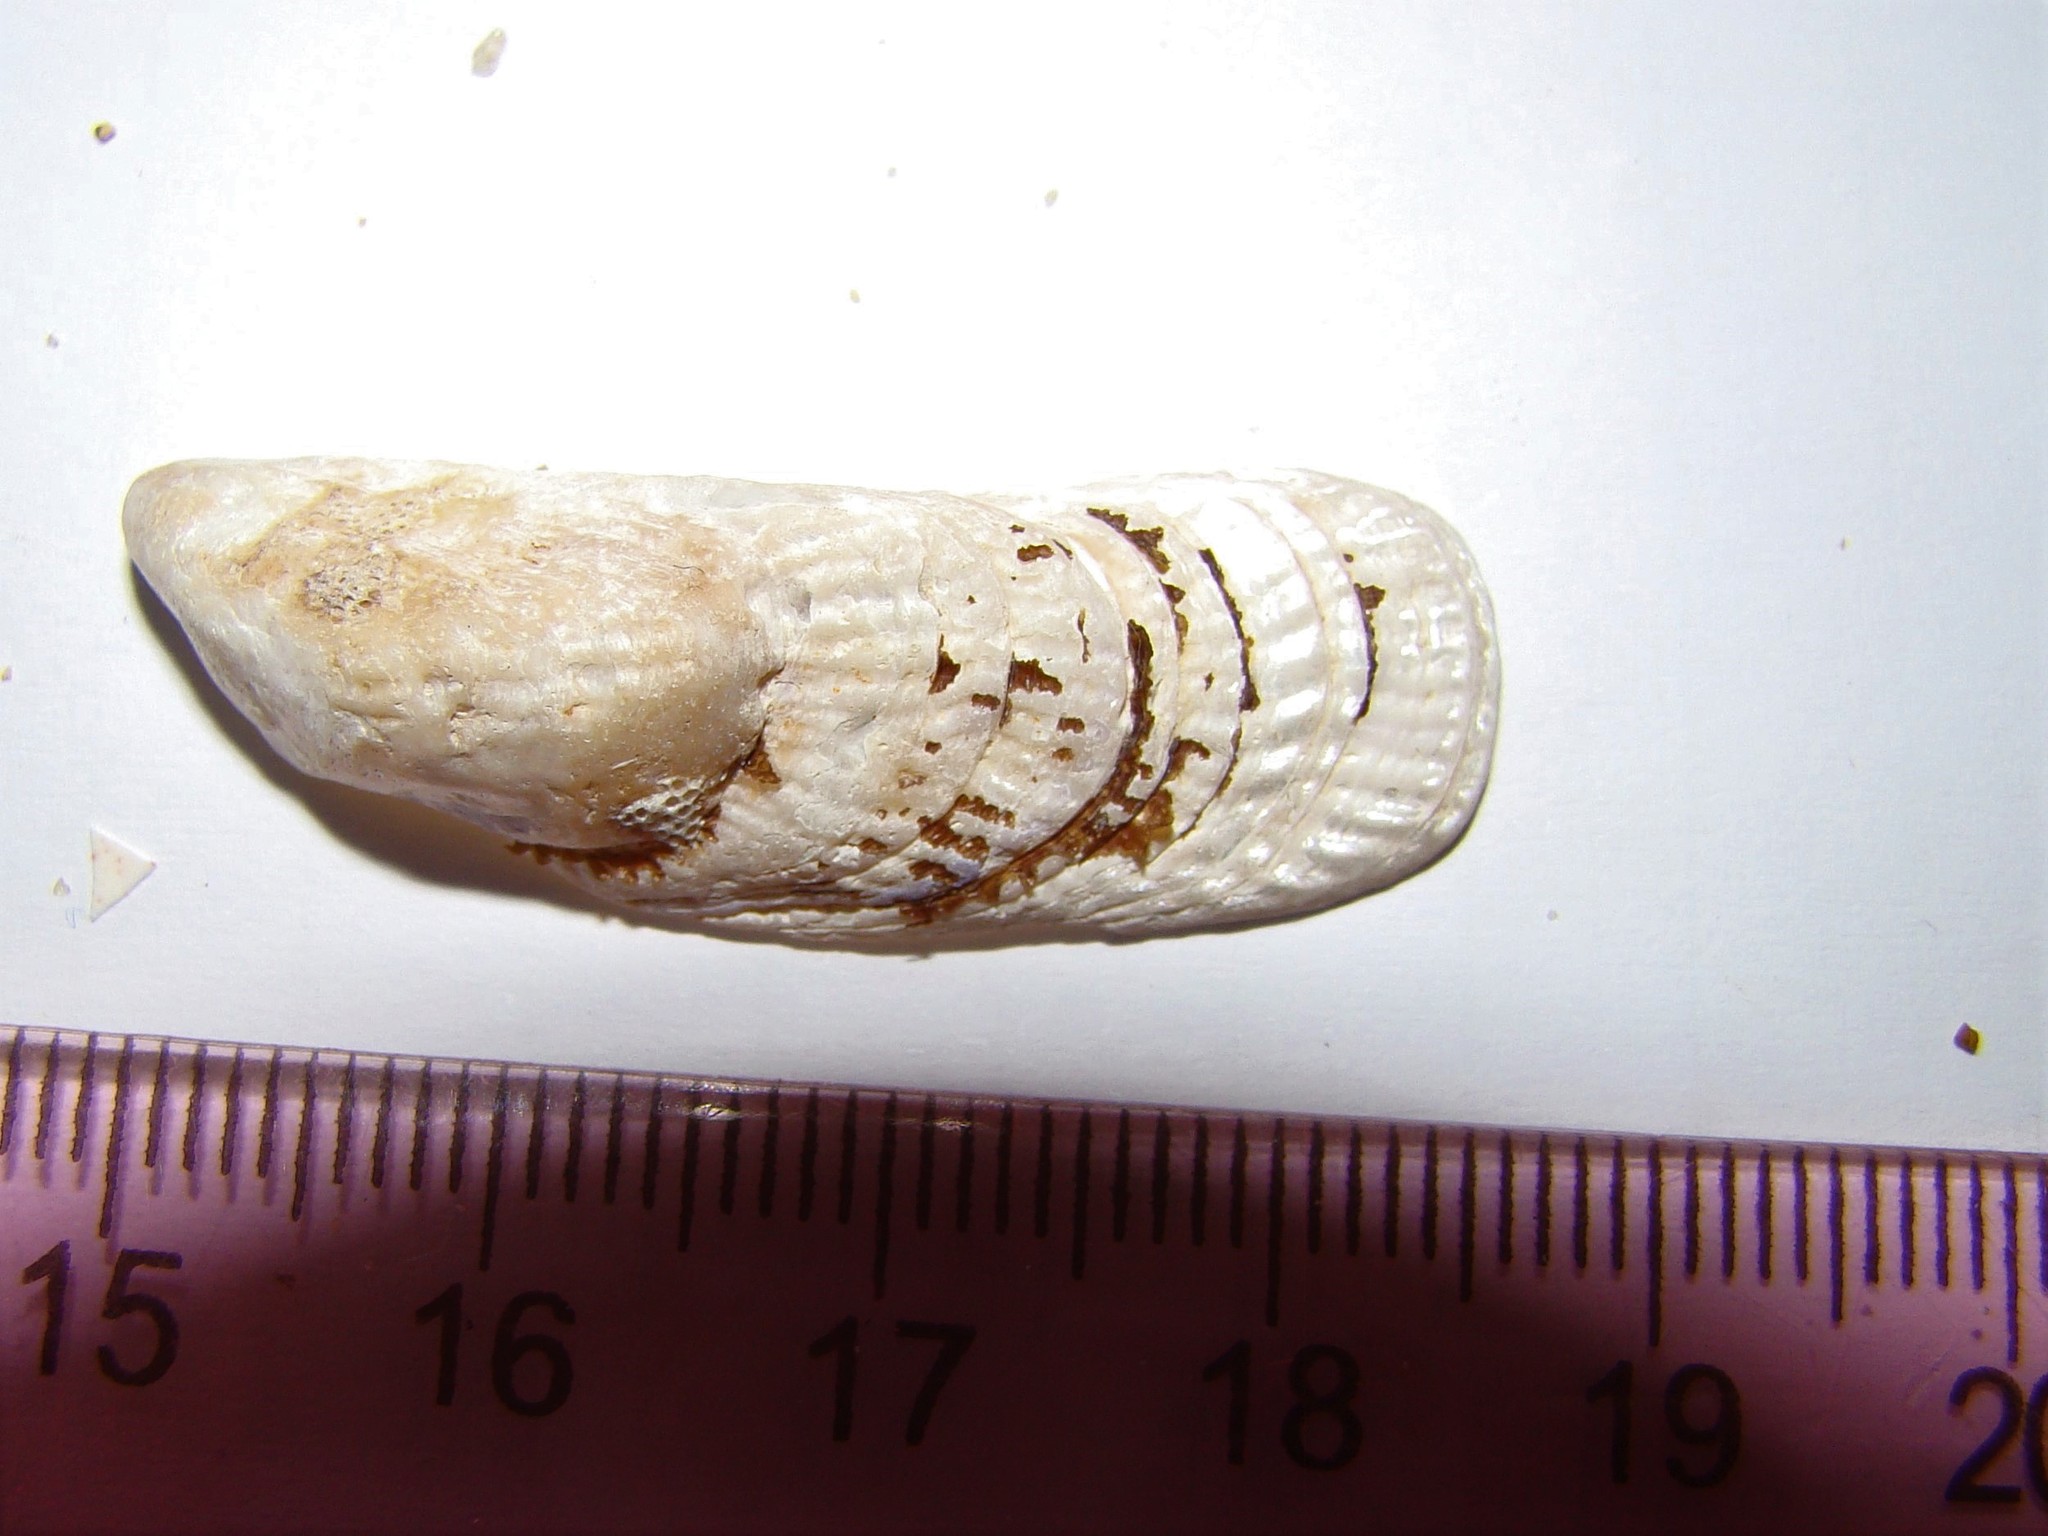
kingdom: Animalia
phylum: Mollusca
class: Bivalvia
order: Mytilida
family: Mytilidae
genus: Aulacomya
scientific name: Aulacomya maoriana
